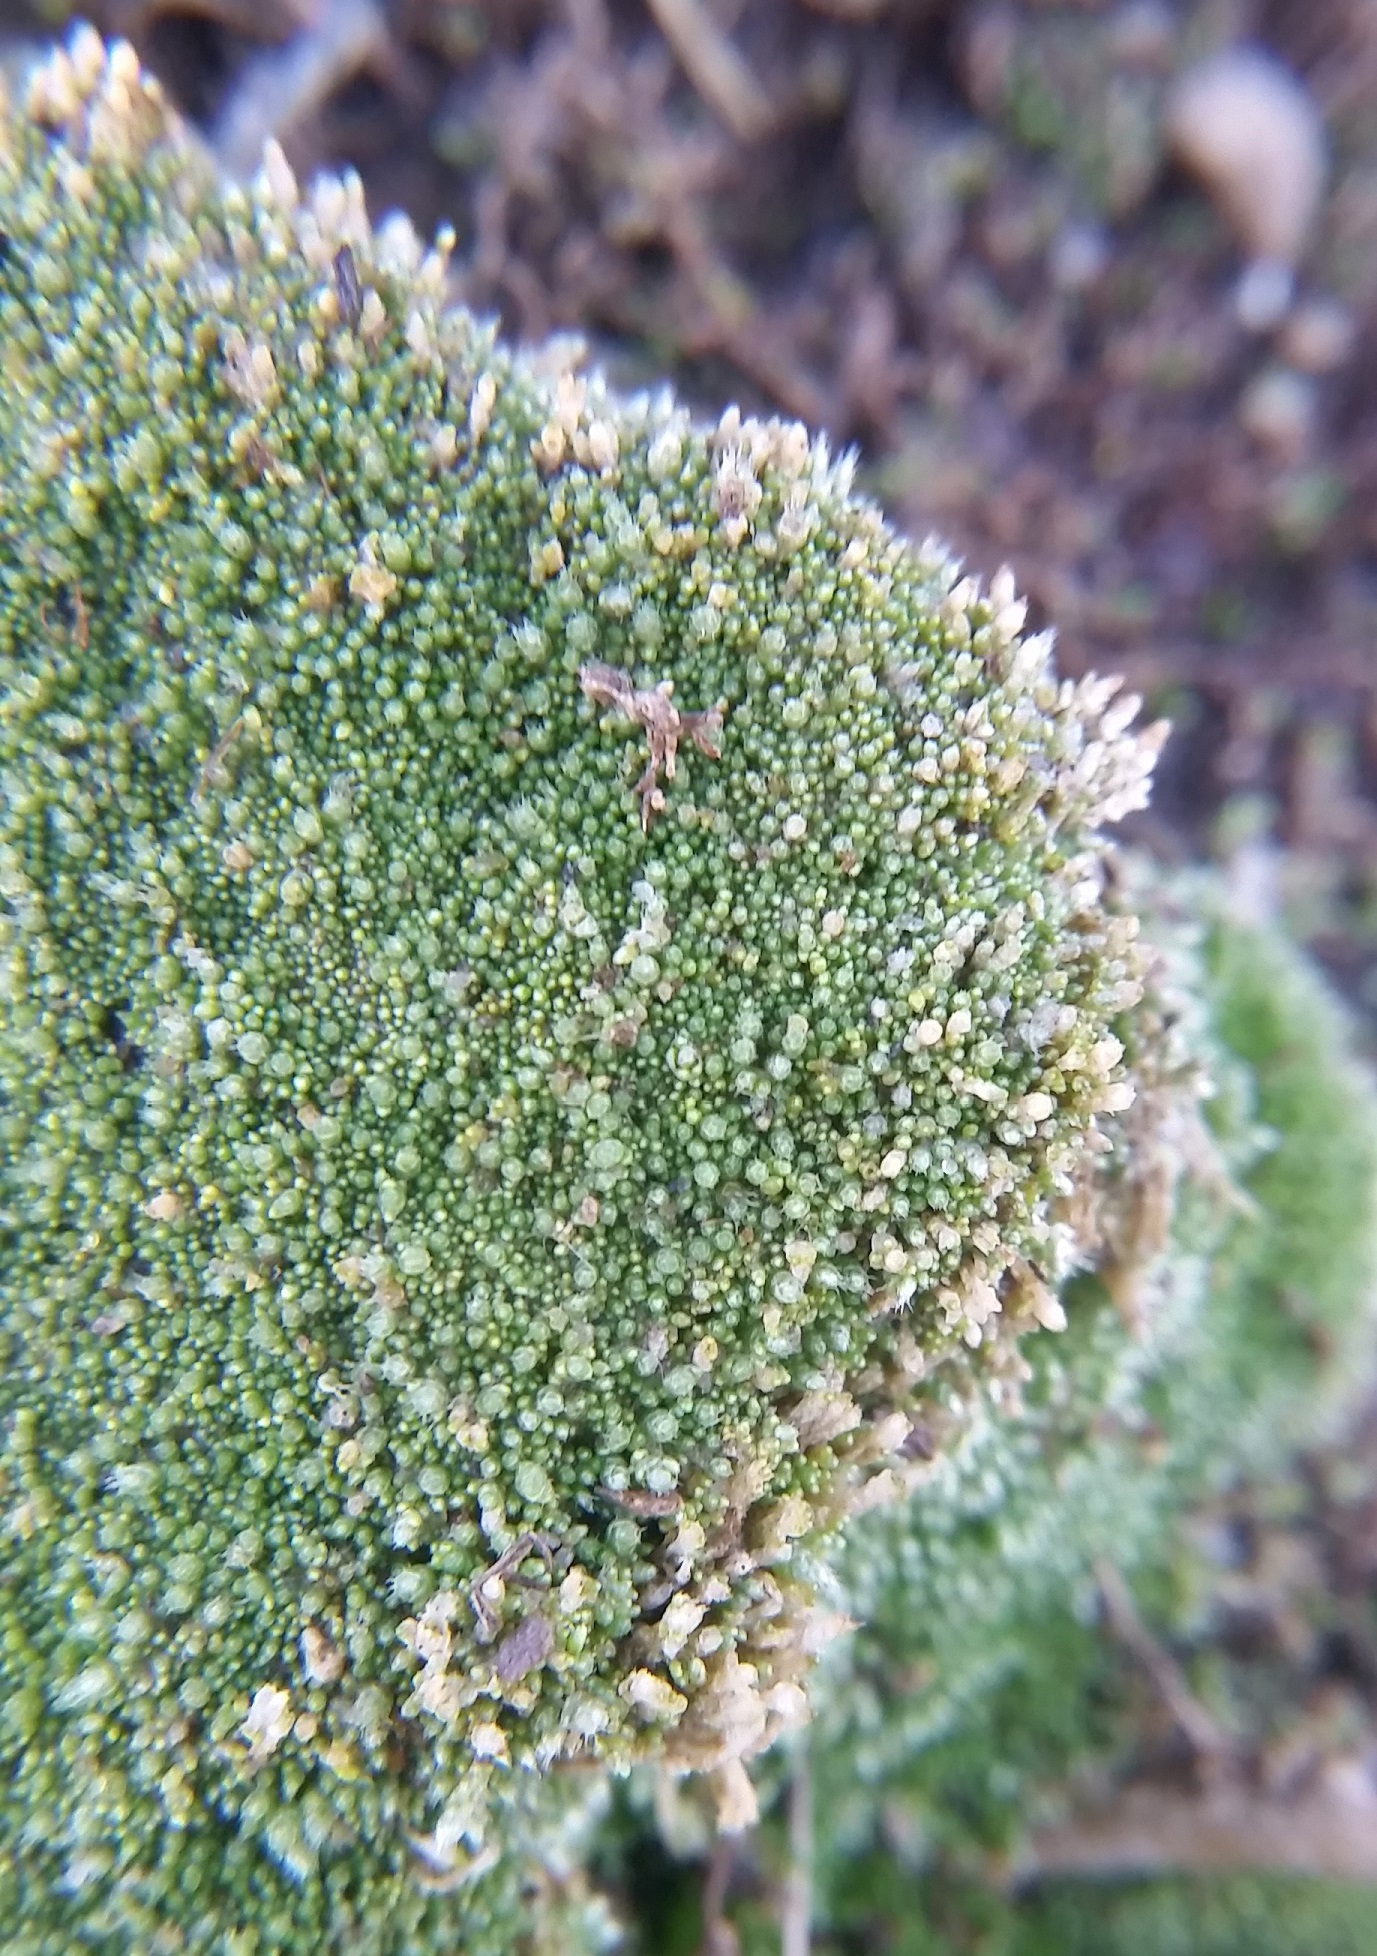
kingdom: Plantae
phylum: Bryophyta
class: Bryopsida
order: Bryales
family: Bryaceae
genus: Bryum
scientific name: Bryum argenteum
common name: Silver-moss
